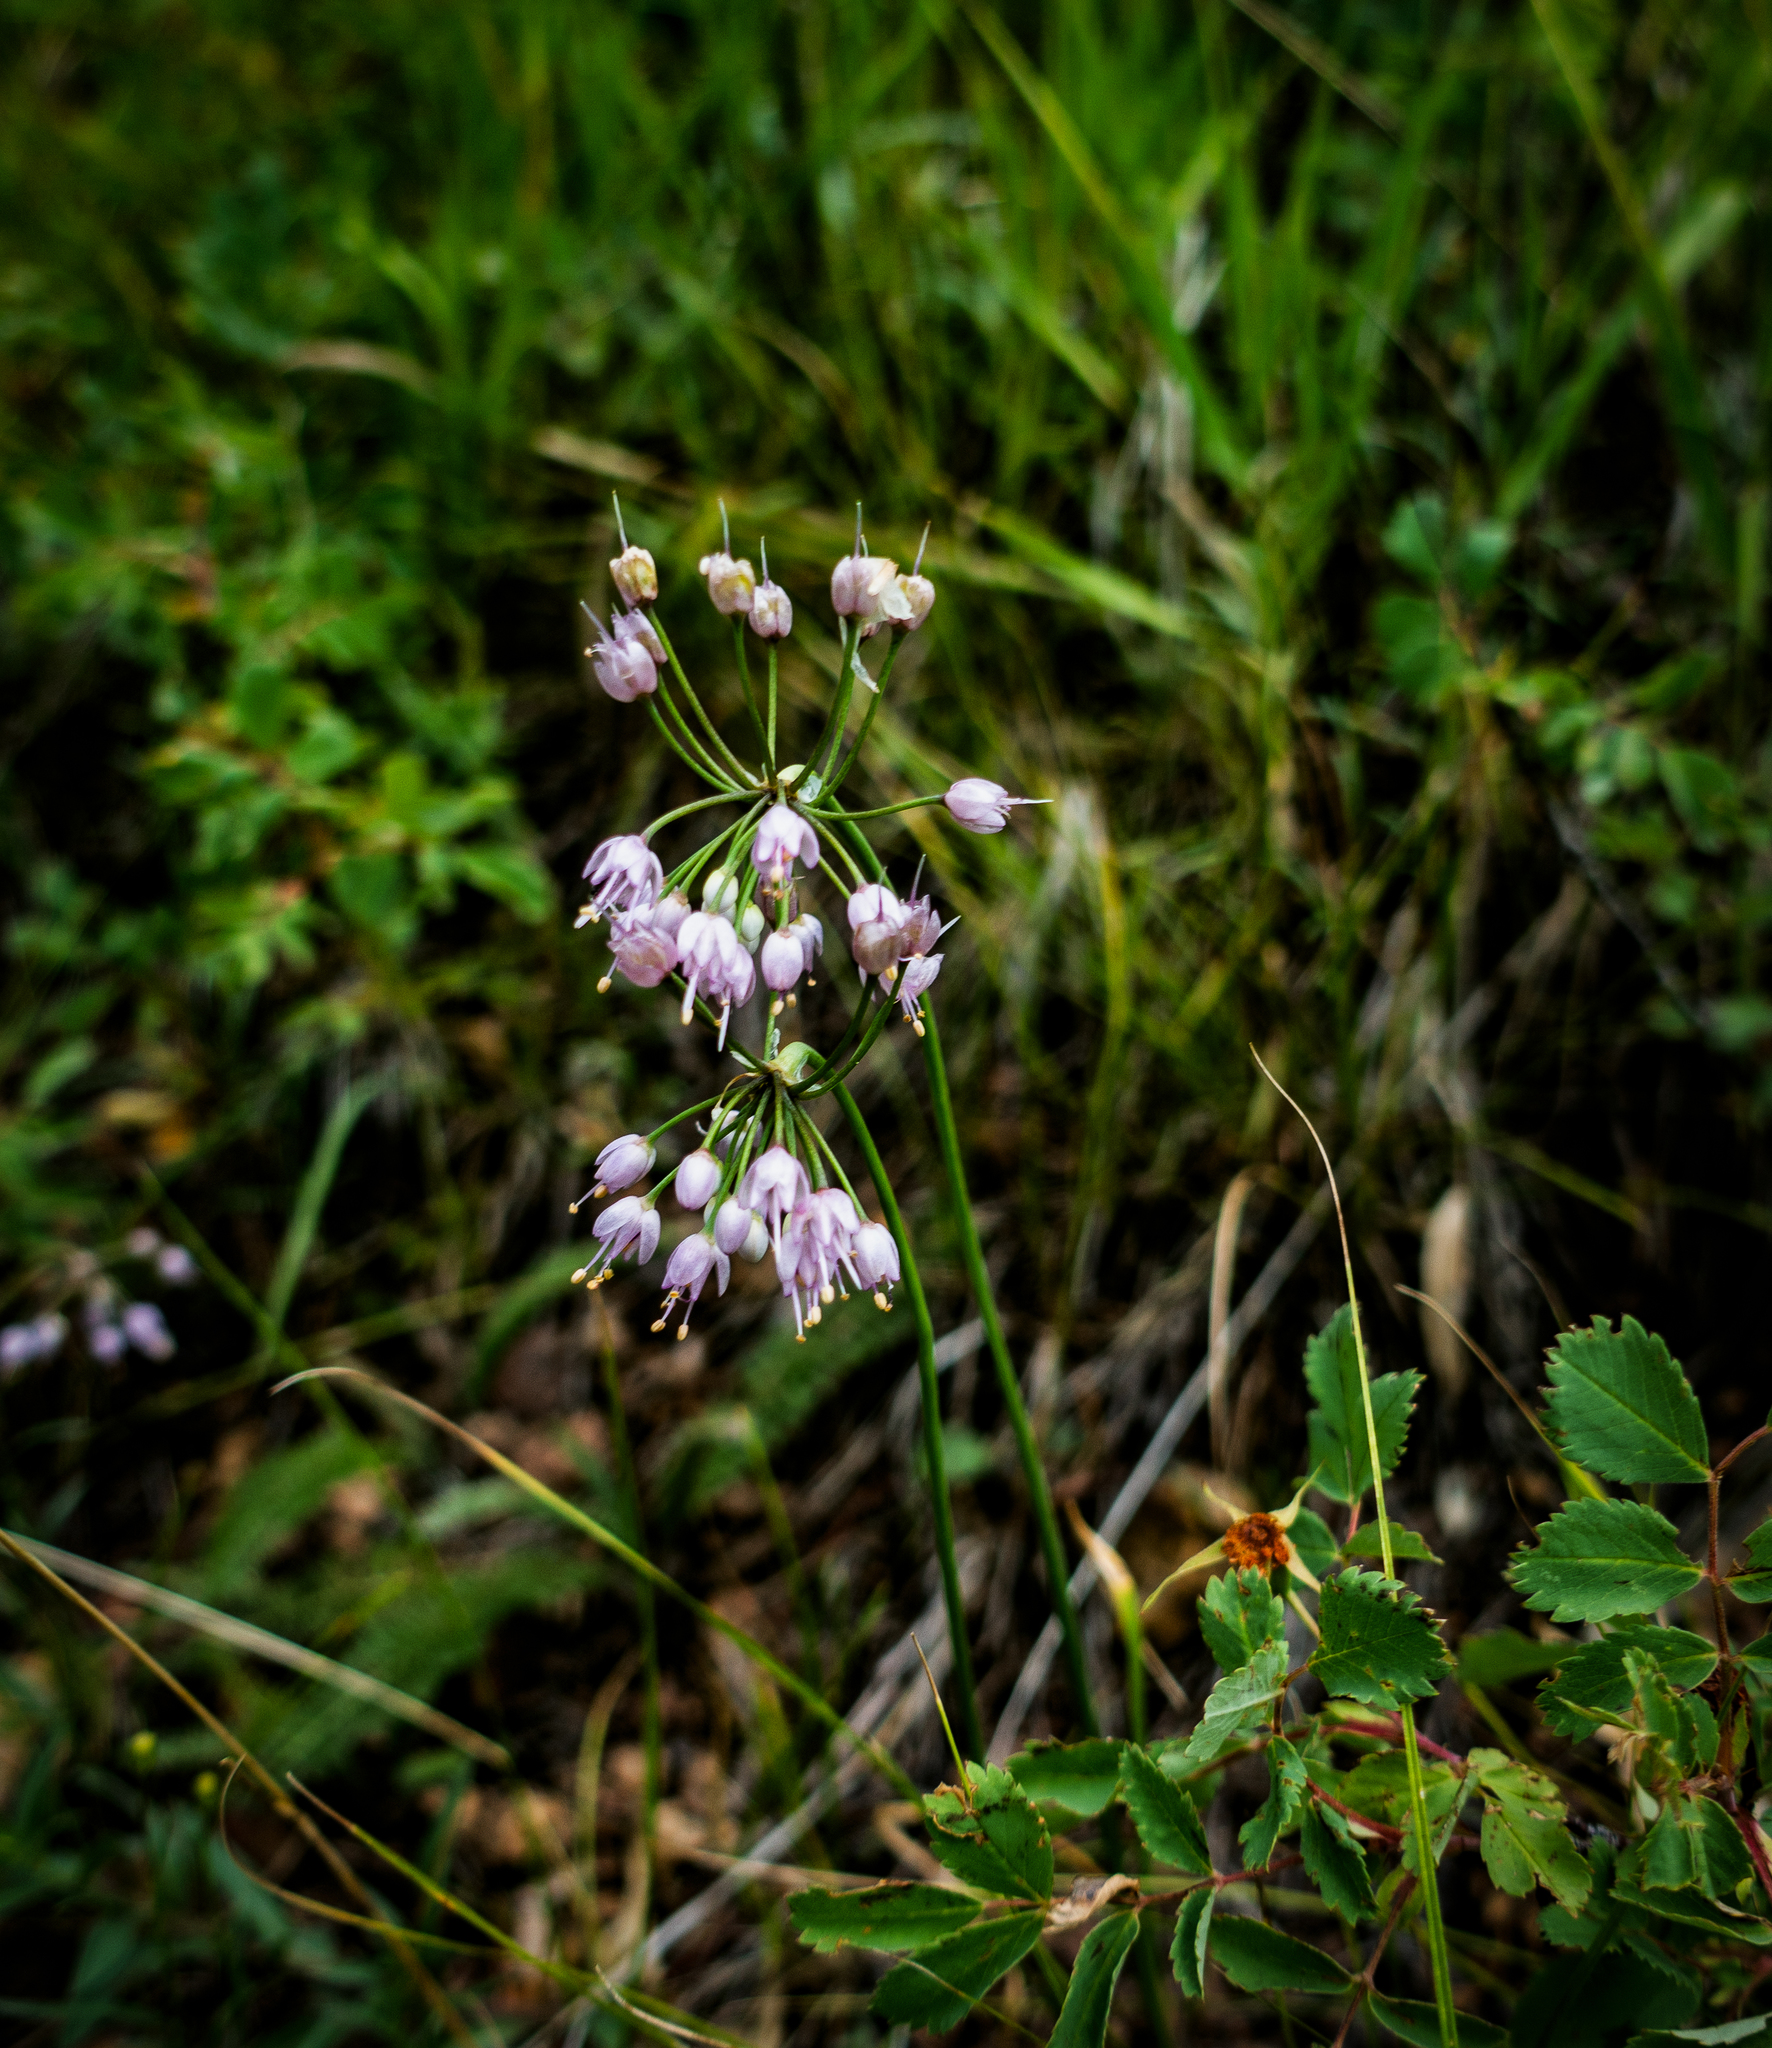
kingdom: Plantae
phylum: Tracheophyta
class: Liliopsida
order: Asparagales
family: Amaryllidaceae
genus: Allium
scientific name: Allium cernuum
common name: Nodding onion
